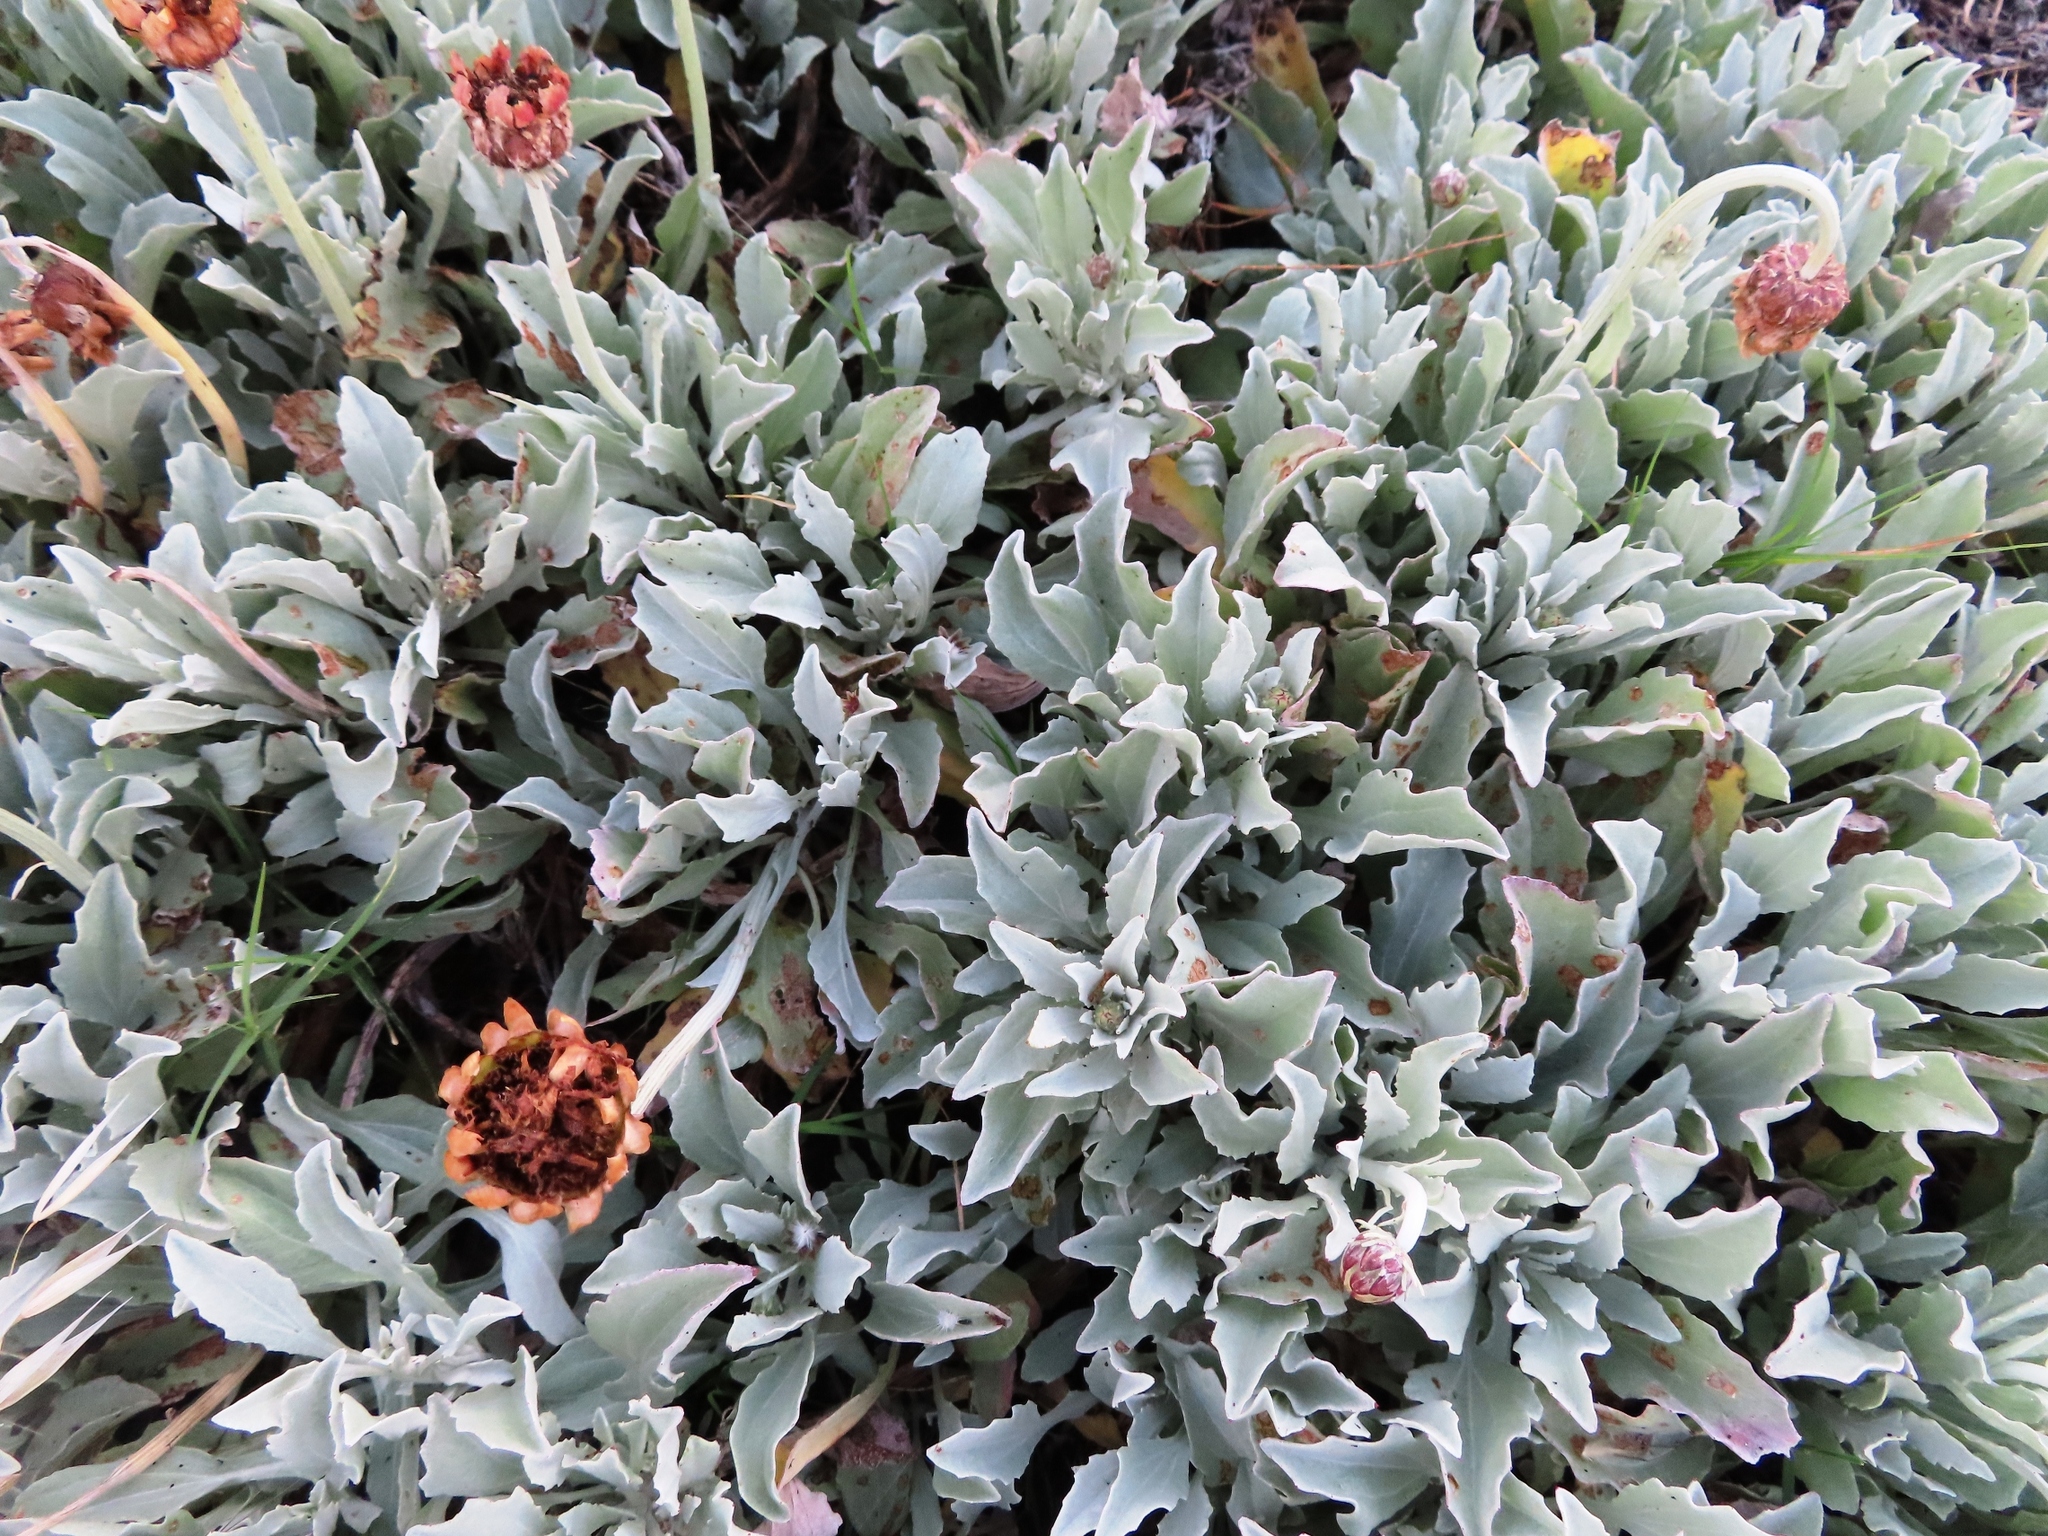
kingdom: Plantae
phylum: Tracheophyta
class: Magnoliopsida
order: Asterales
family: Asteraceae
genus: Arctotis
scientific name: Arctotis stoechadifolia
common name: African daisy
